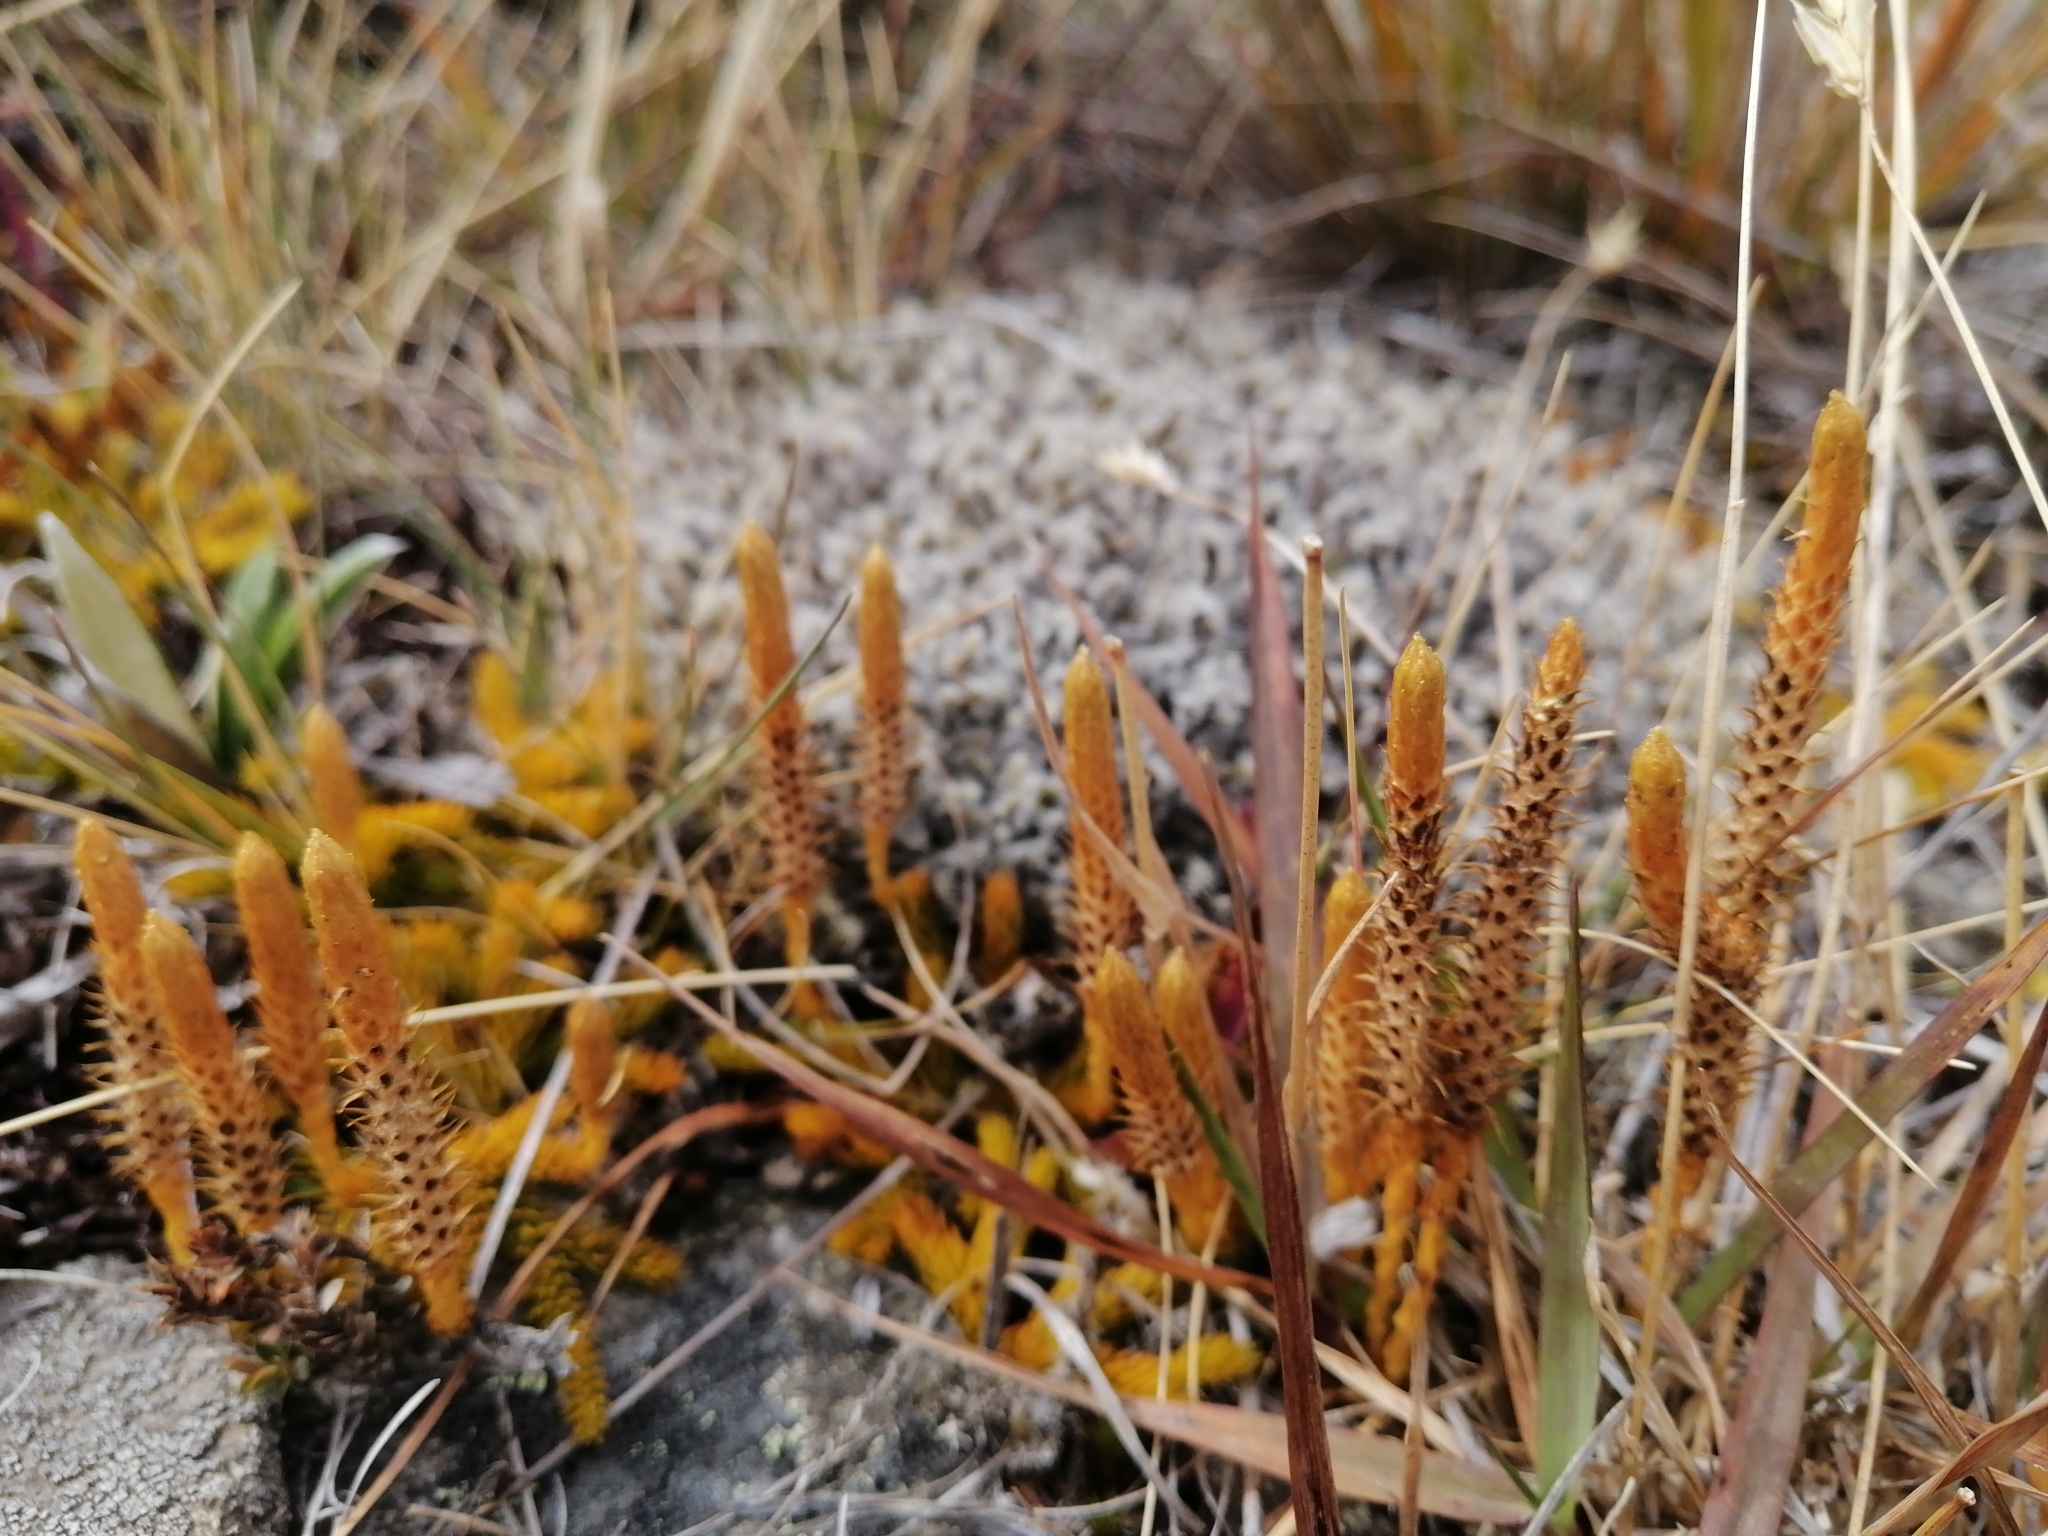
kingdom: Plantae
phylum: Tracheophyta
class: Lycopodiopsida
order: Lycopodiales
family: Lycopodiaceae
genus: Austrolycopodium
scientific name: Austrolycopodium fastigiatum
